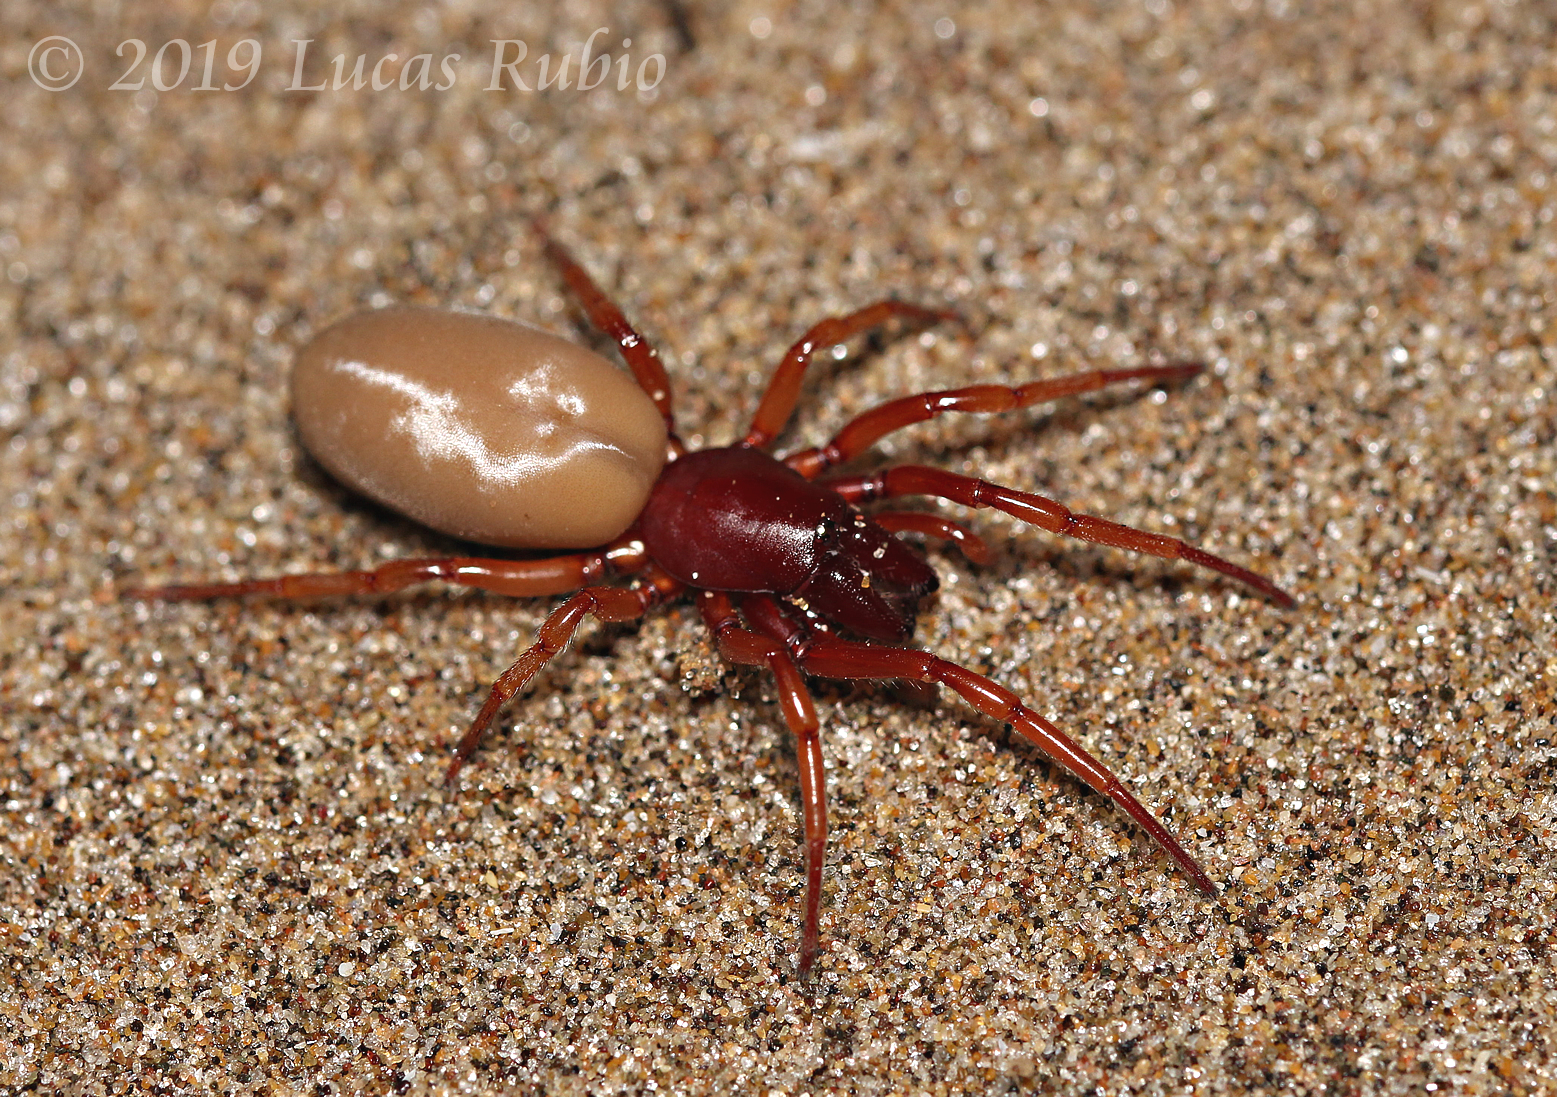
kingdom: Animalia
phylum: Arthropoda
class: Arachnida
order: Araneae
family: Dysderidae
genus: Dysdera
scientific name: Dysdera crocata
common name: Woodlouse spider
